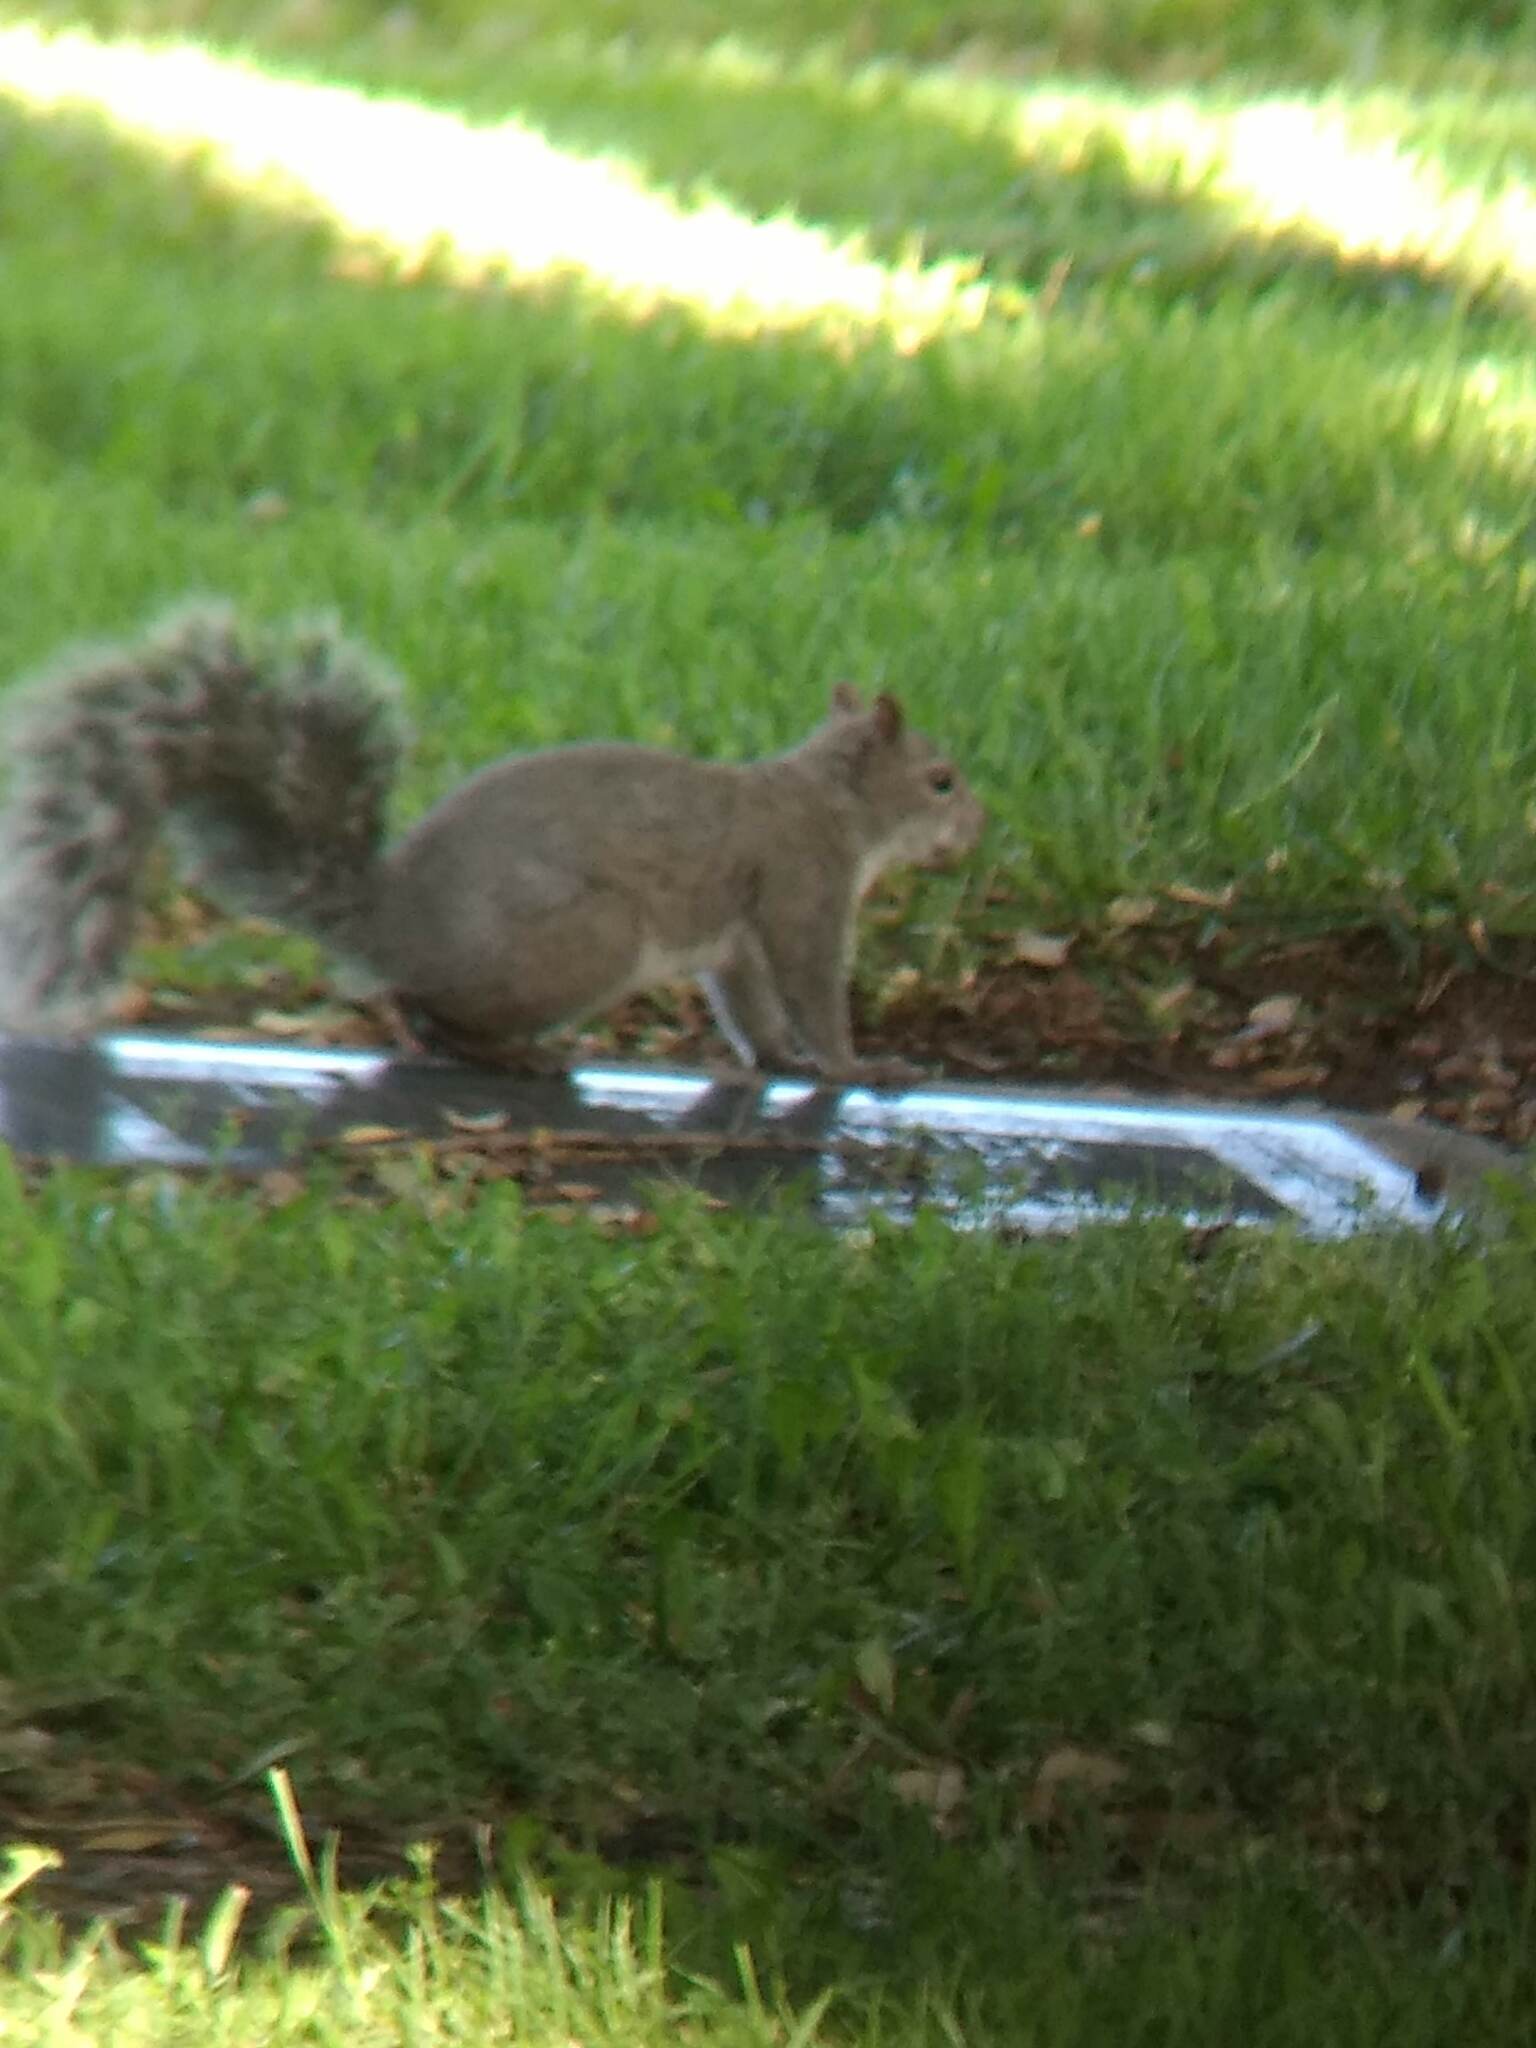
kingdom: Animalia
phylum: Chordata
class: Mammalia
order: Rodentia
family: Sciuridae
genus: Sciurus
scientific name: Sciurus griseus
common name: Western gray squirrel
